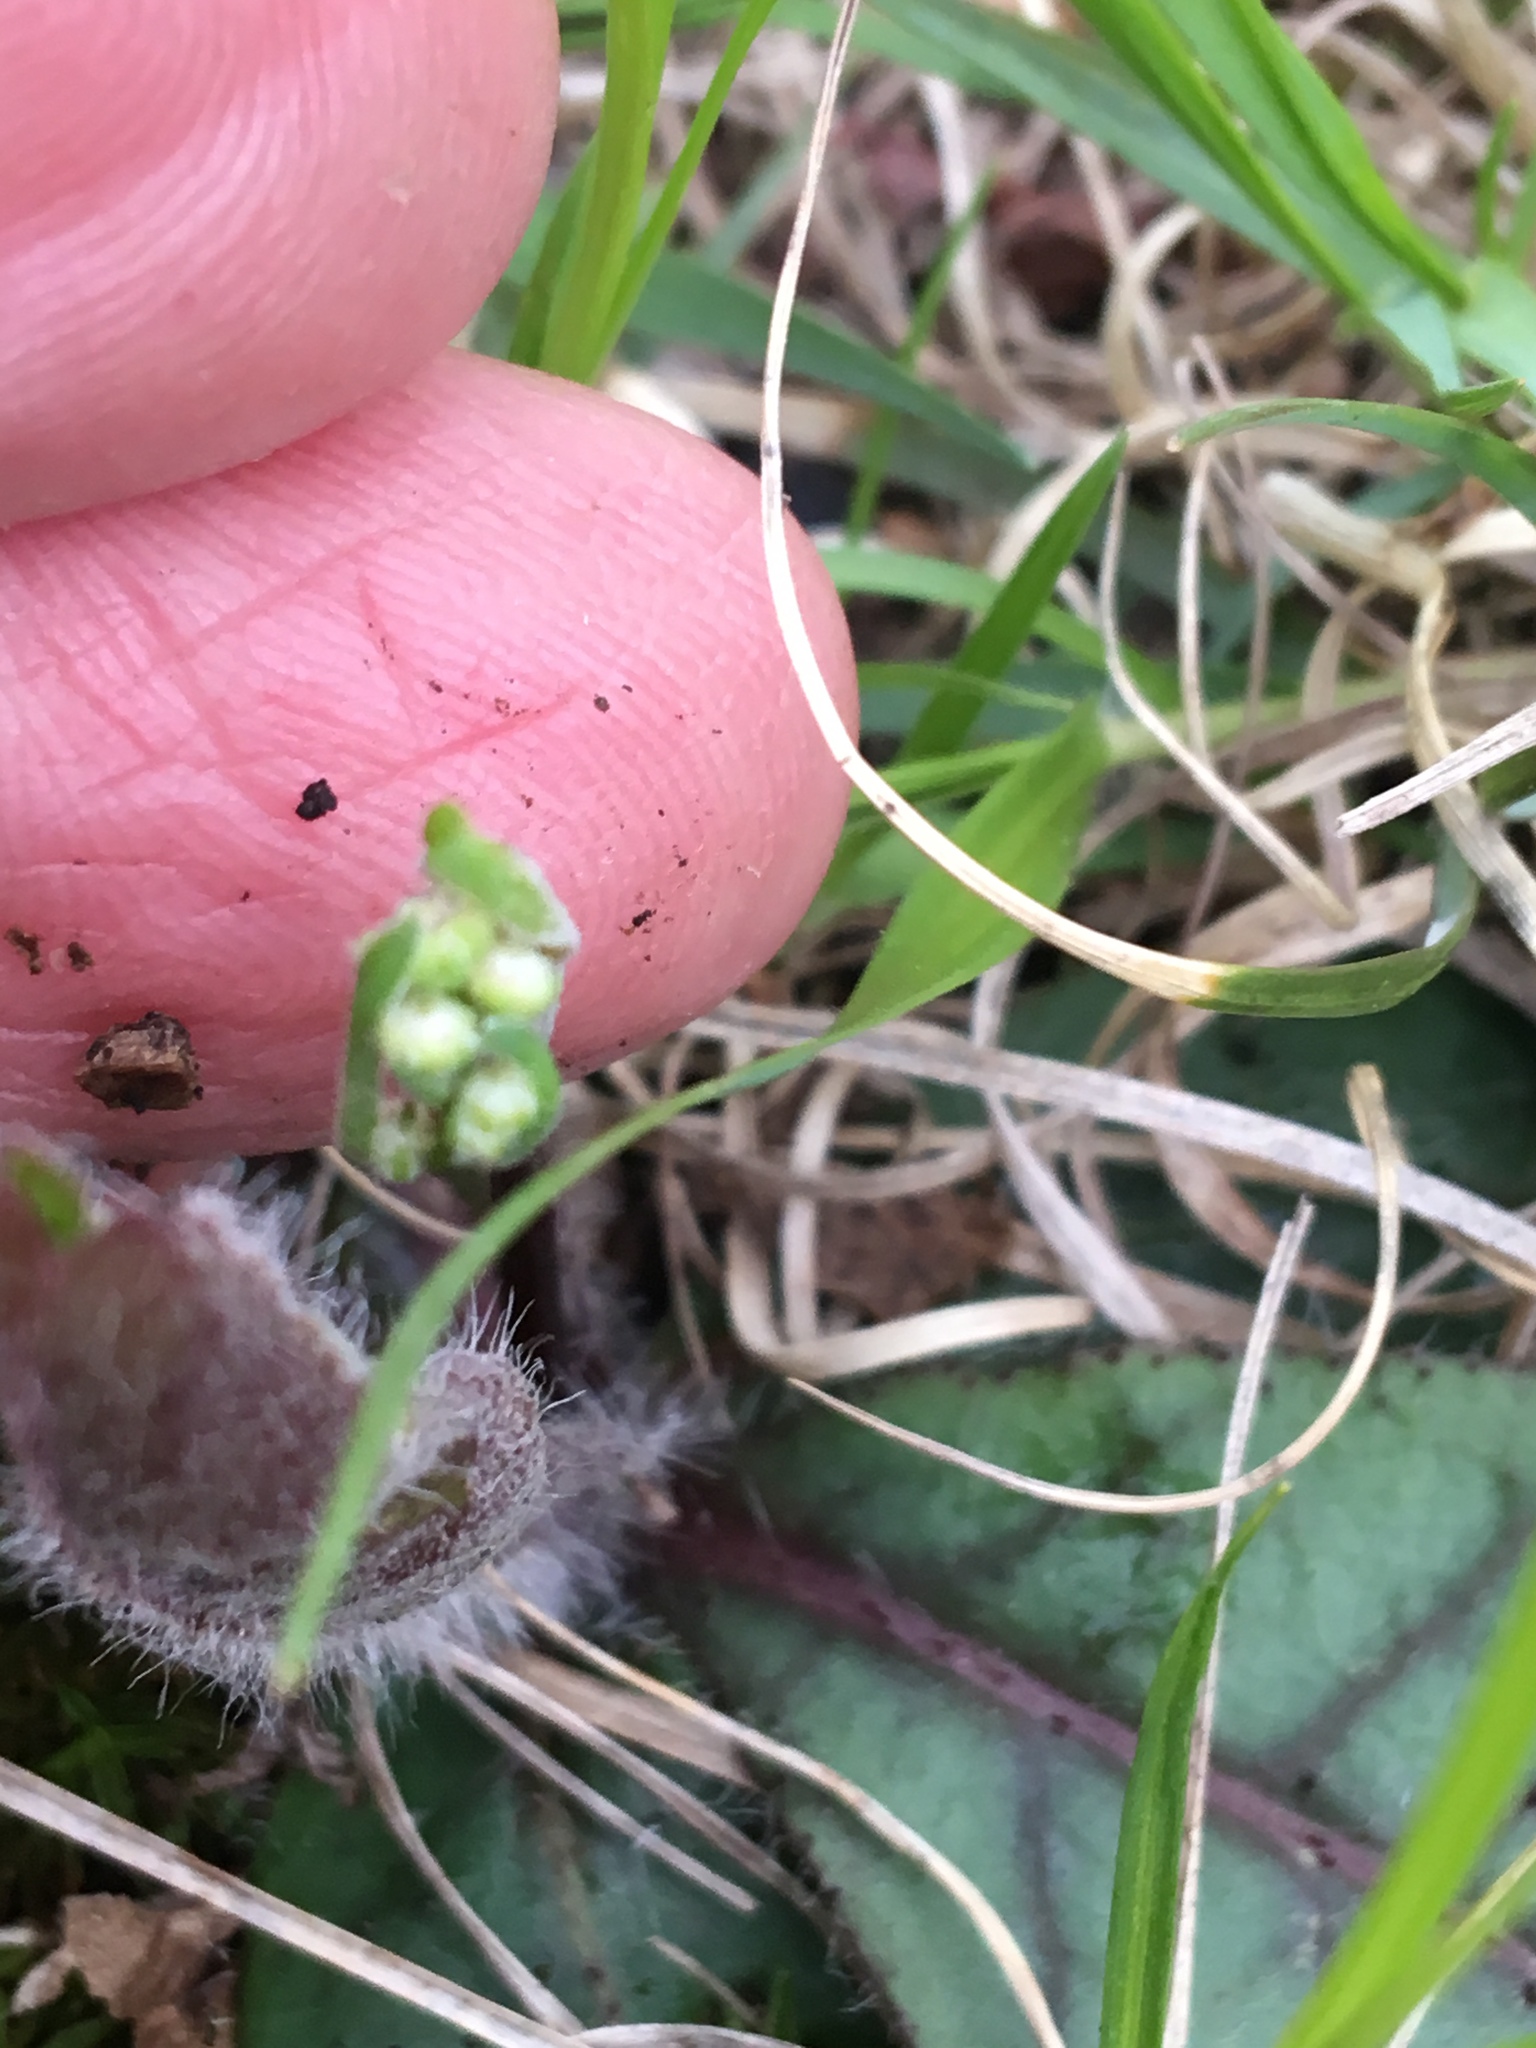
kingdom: Plantae
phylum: Tracheophyta
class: Magnoliopsida
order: Asterales
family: Asteraceae
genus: Hieracium
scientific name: Hieracium venosum
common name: Rattlesnake hawkweed
